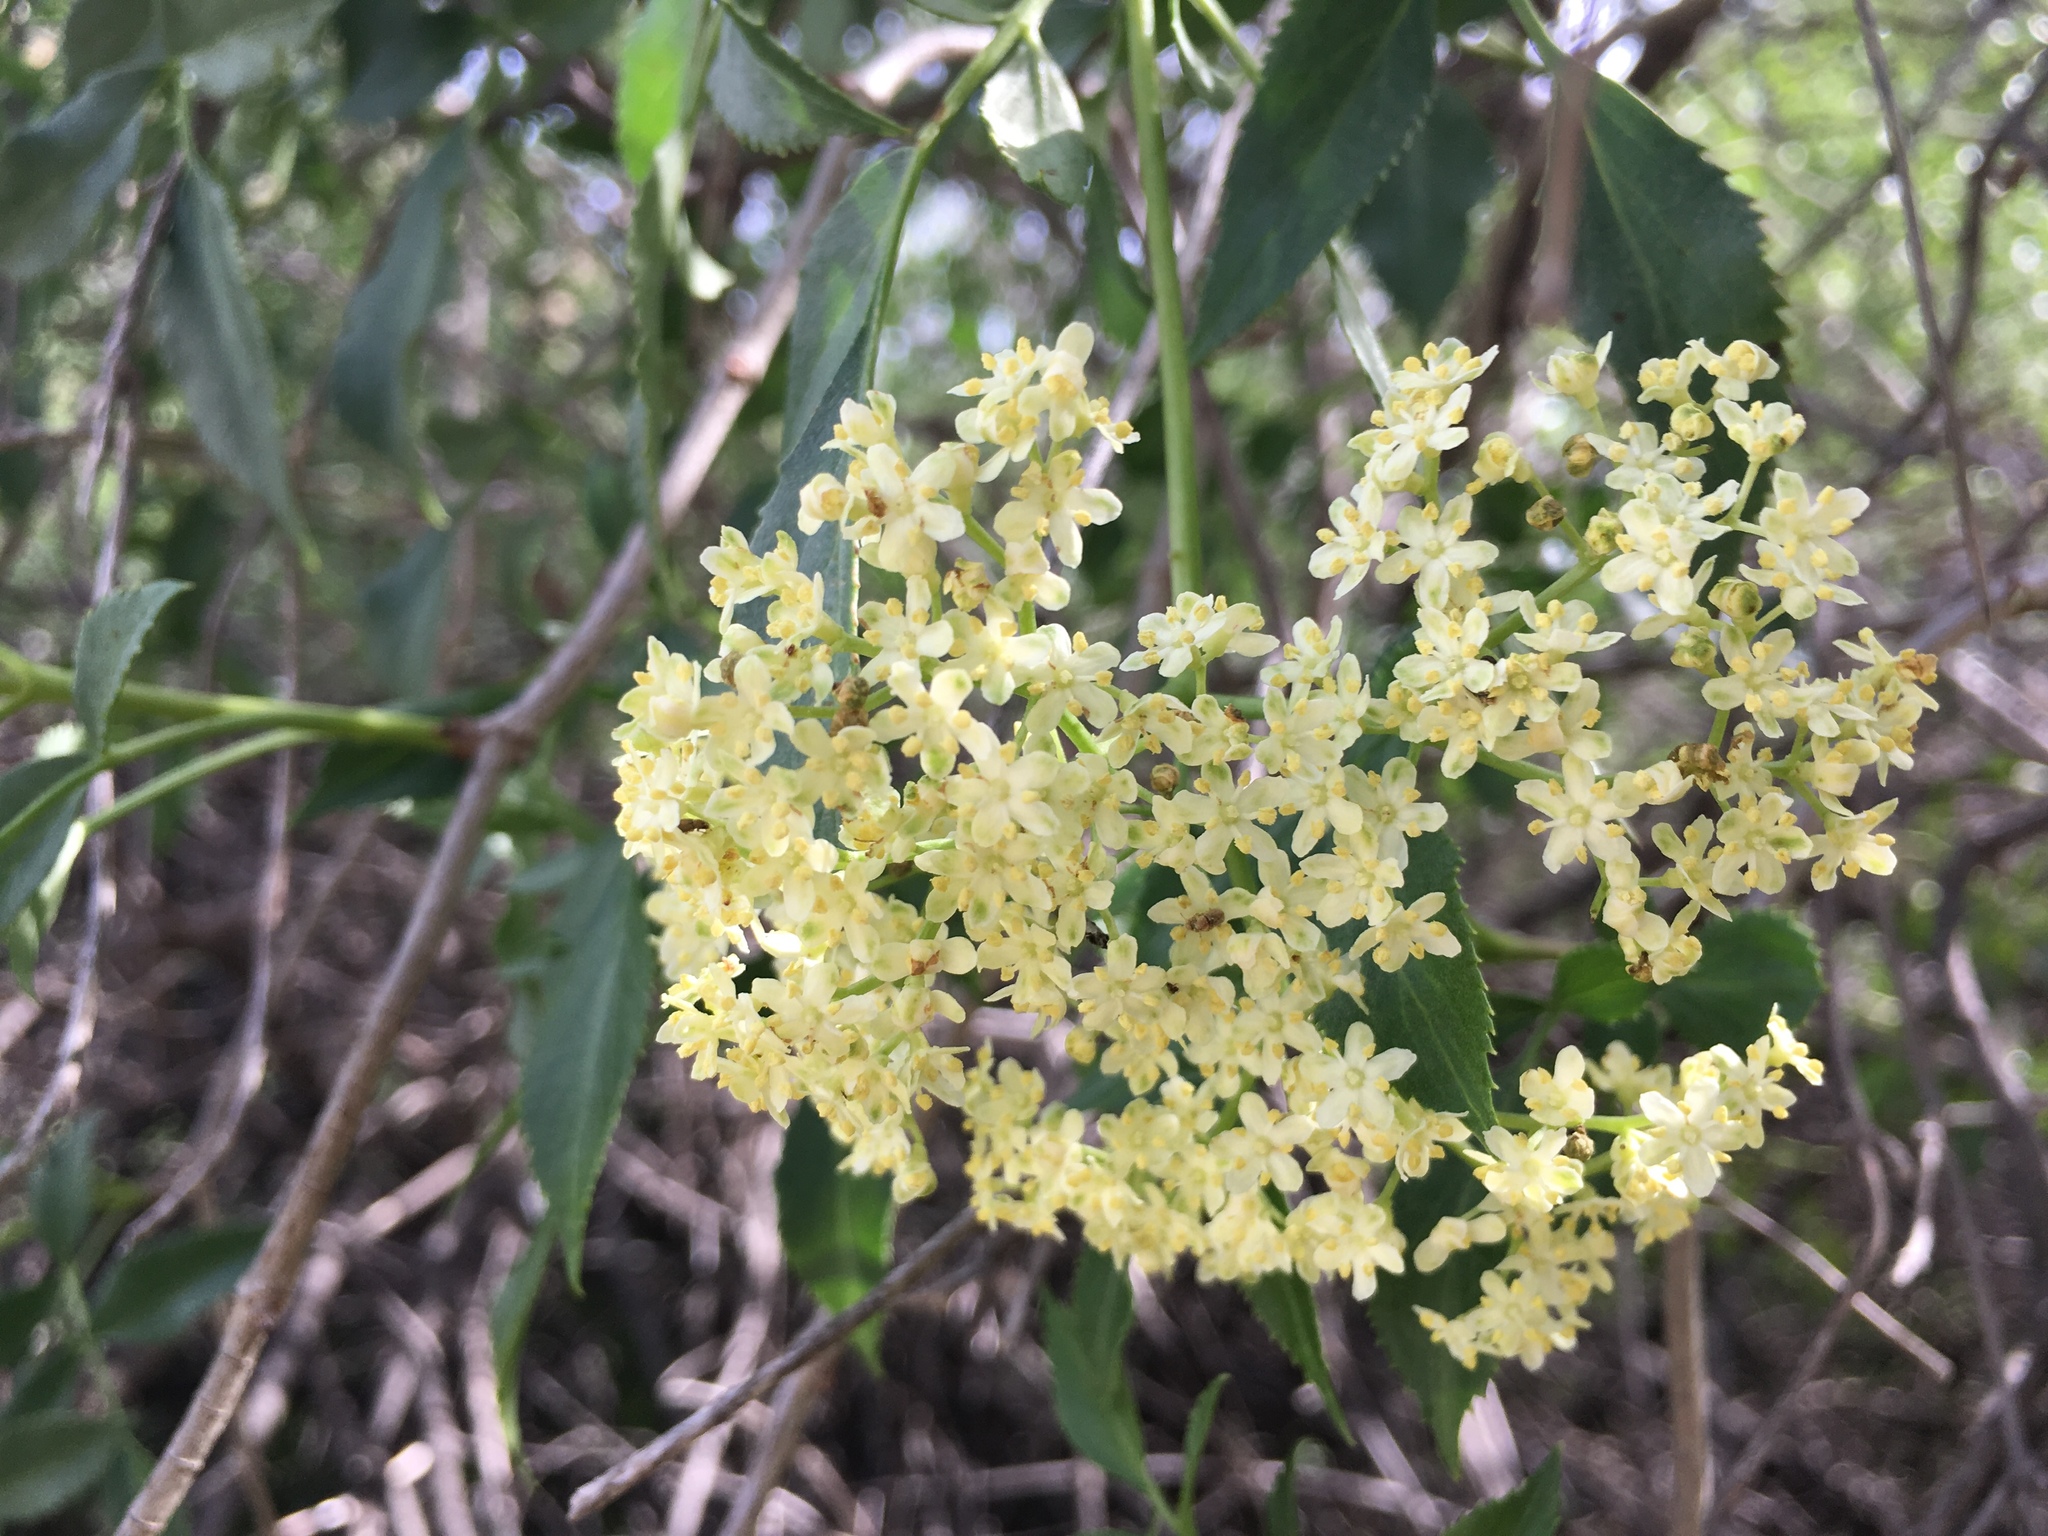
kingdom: Plantae
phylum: Tracheophyta
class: Magnoliopsida
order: Dipsacales
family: Viburnaceae
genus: Sambucus
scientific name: Sambucus cerulea
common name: Blue elder
